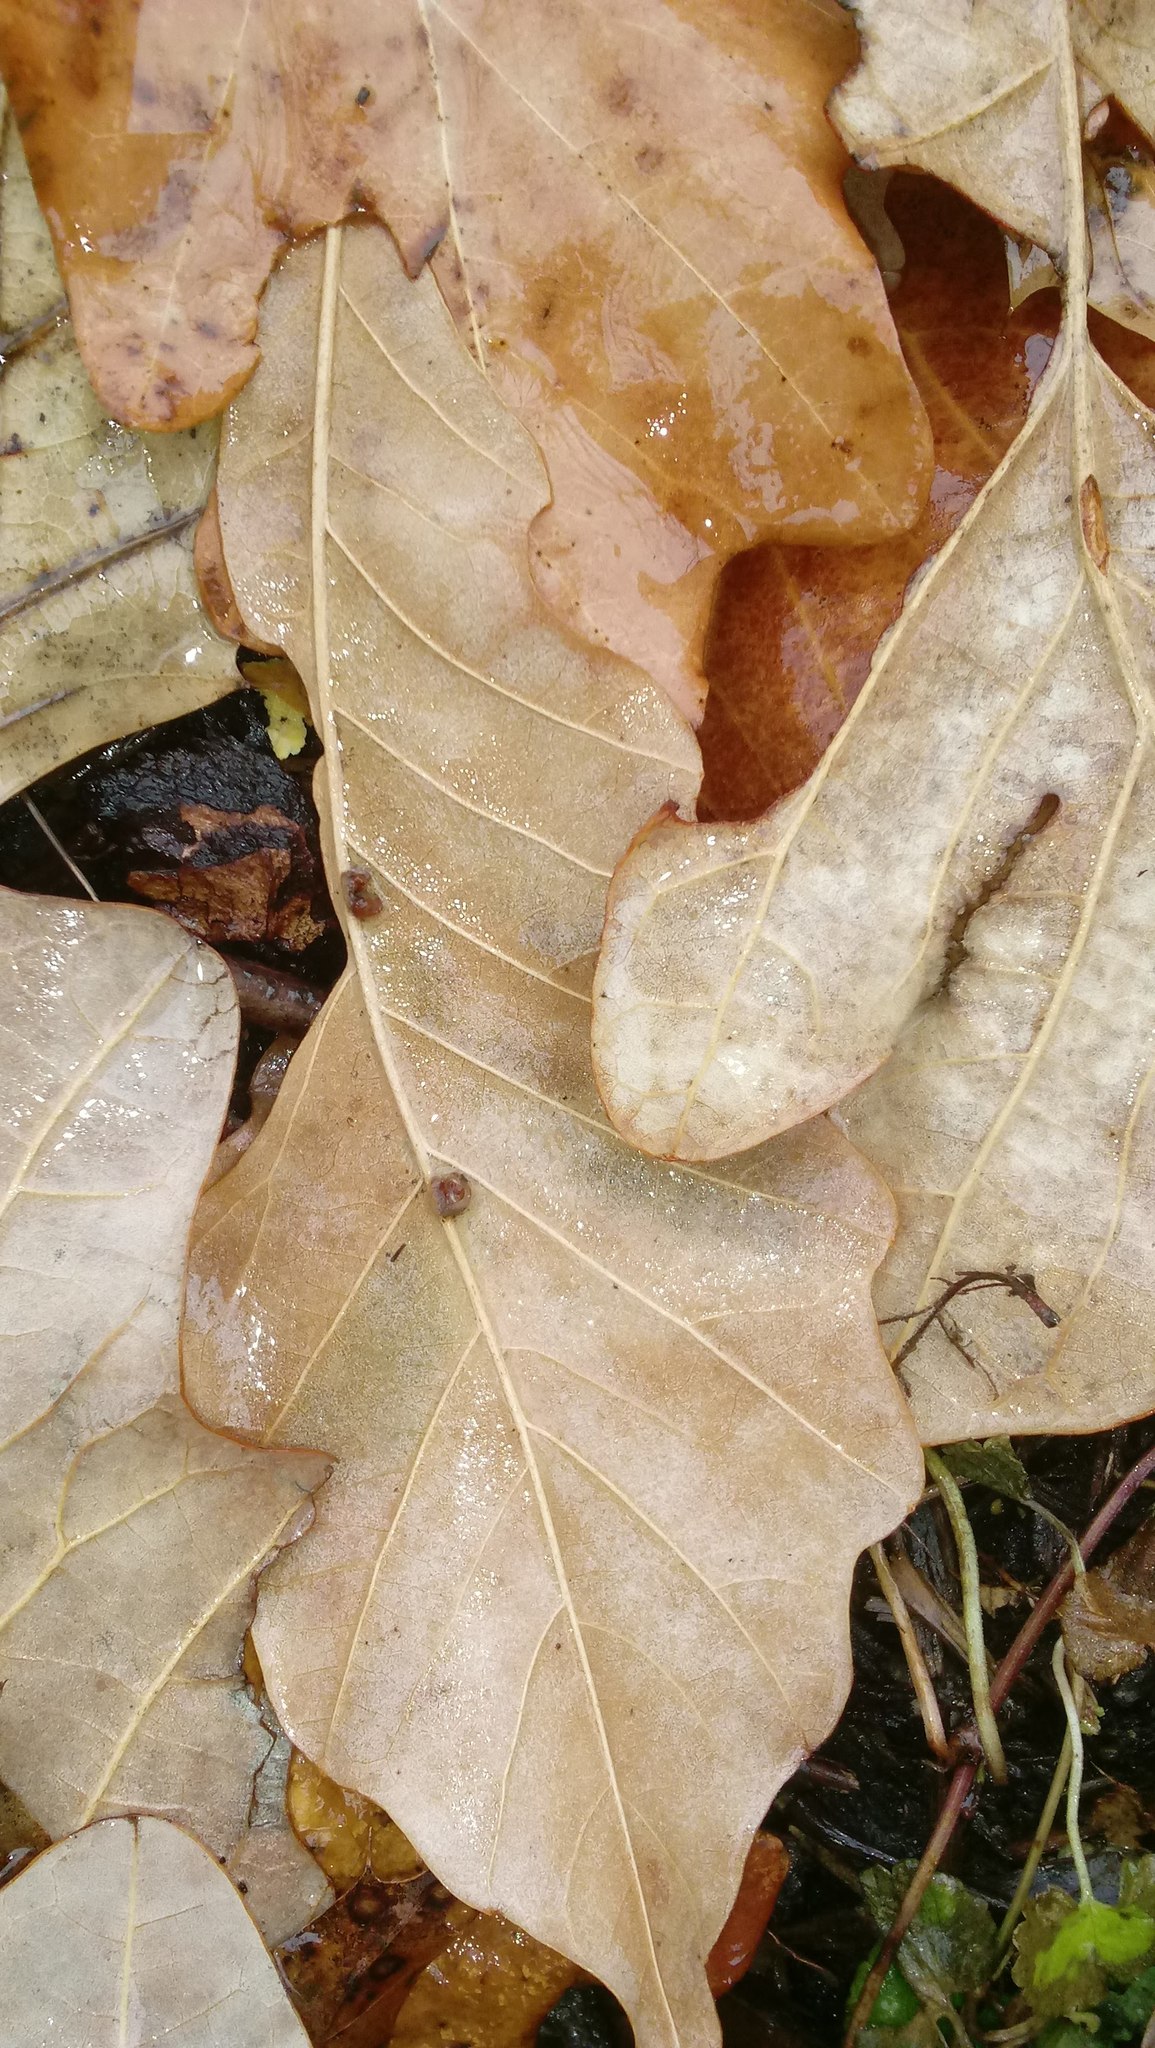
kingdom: Animalia
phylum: Arthropoda
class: Insecta
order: Hymenoptera
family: Cynipidae
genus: Andricus
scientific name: Andricus Druon ignotum
